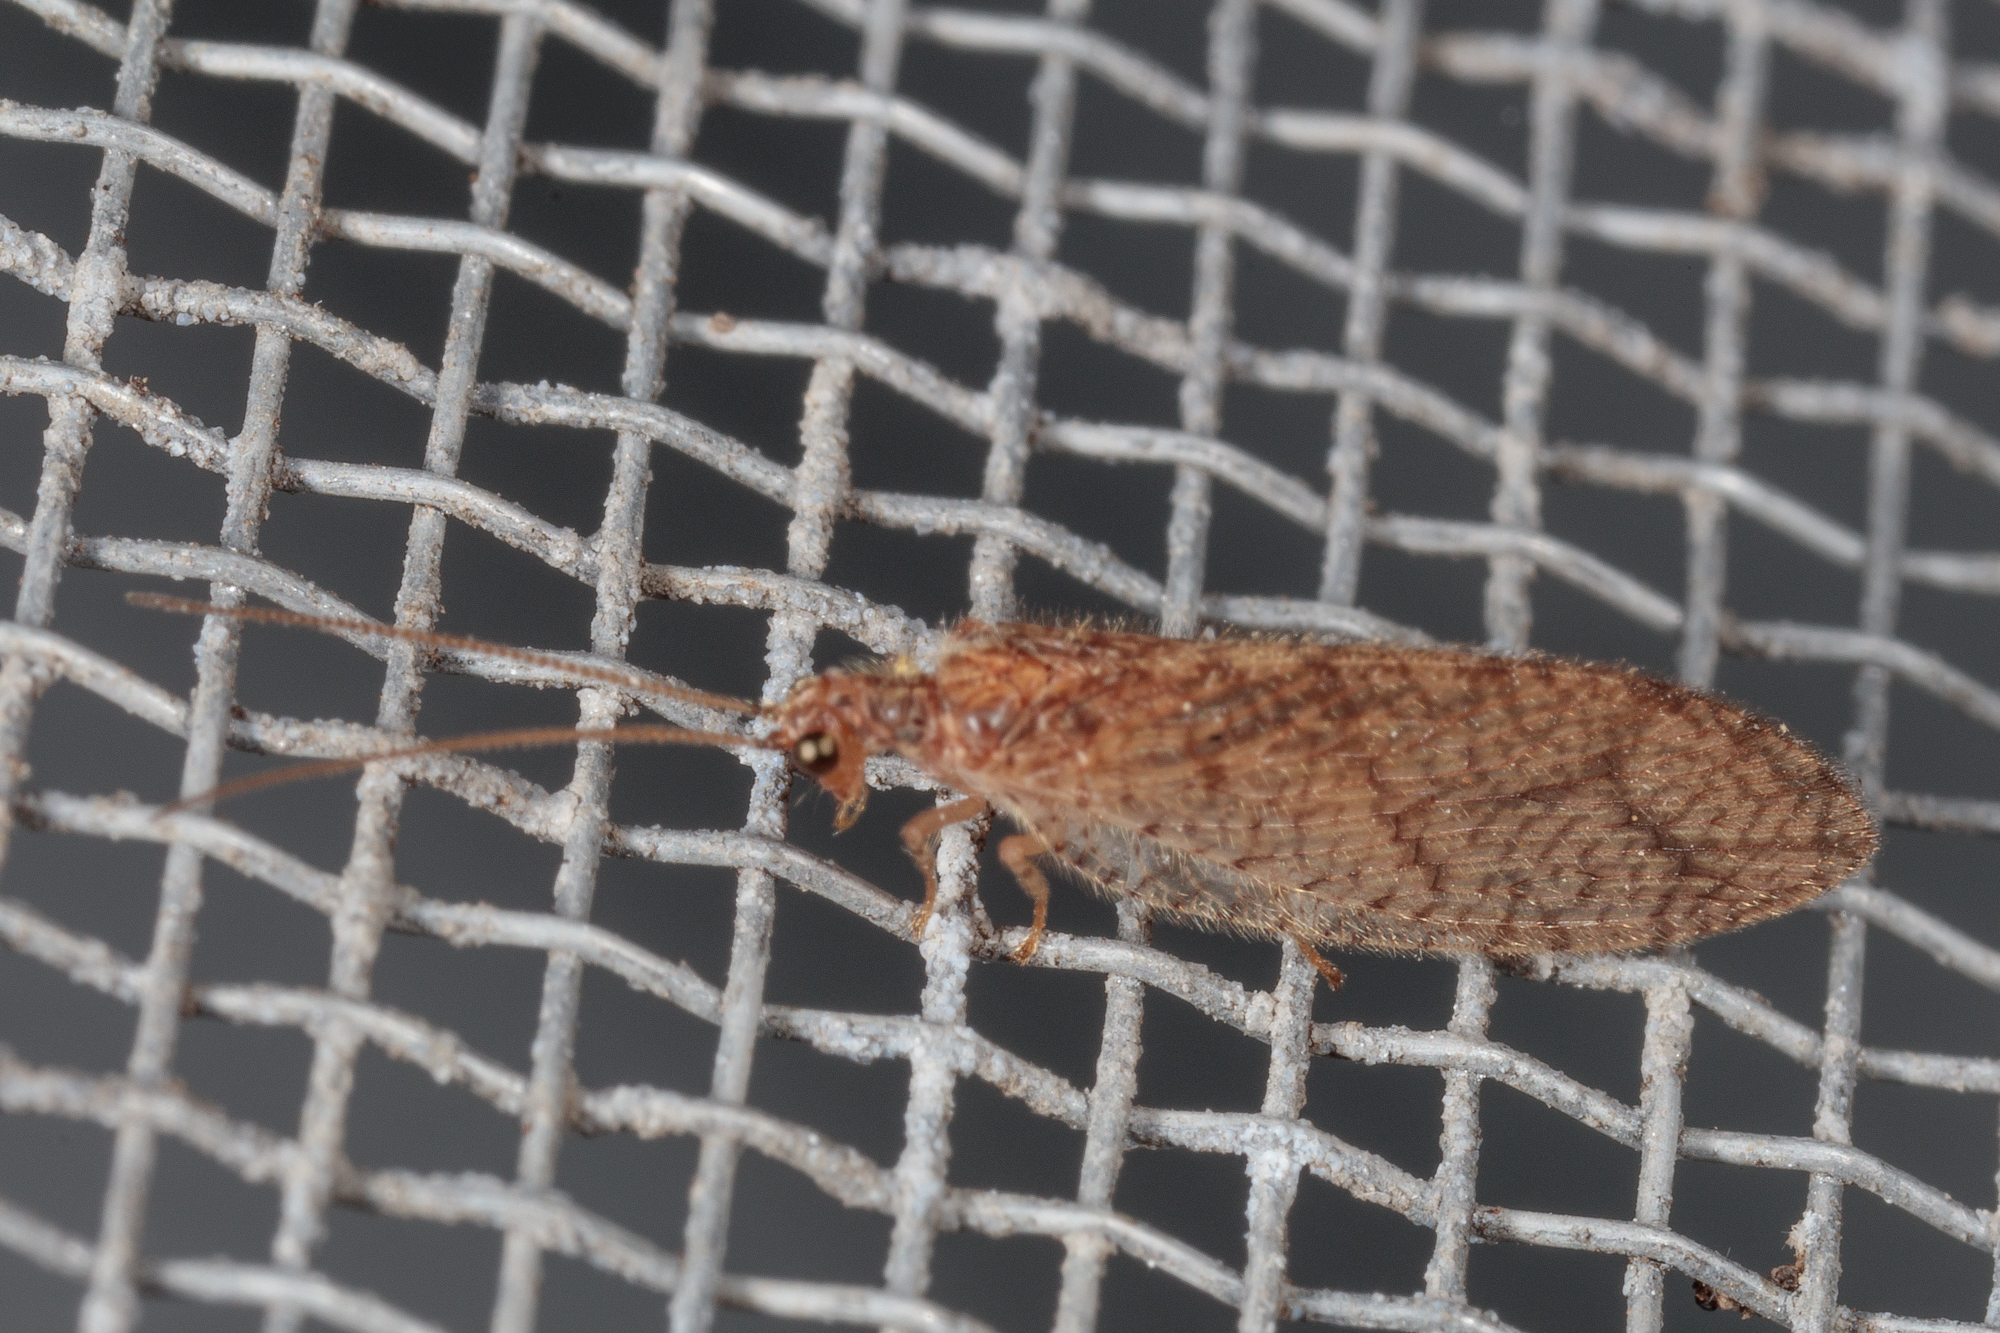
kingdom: Animalia
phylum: Arthropoda
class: Insecta
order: Neuroptera
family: Hemerobiidae
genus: Micromus
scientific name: Micromus posticus
